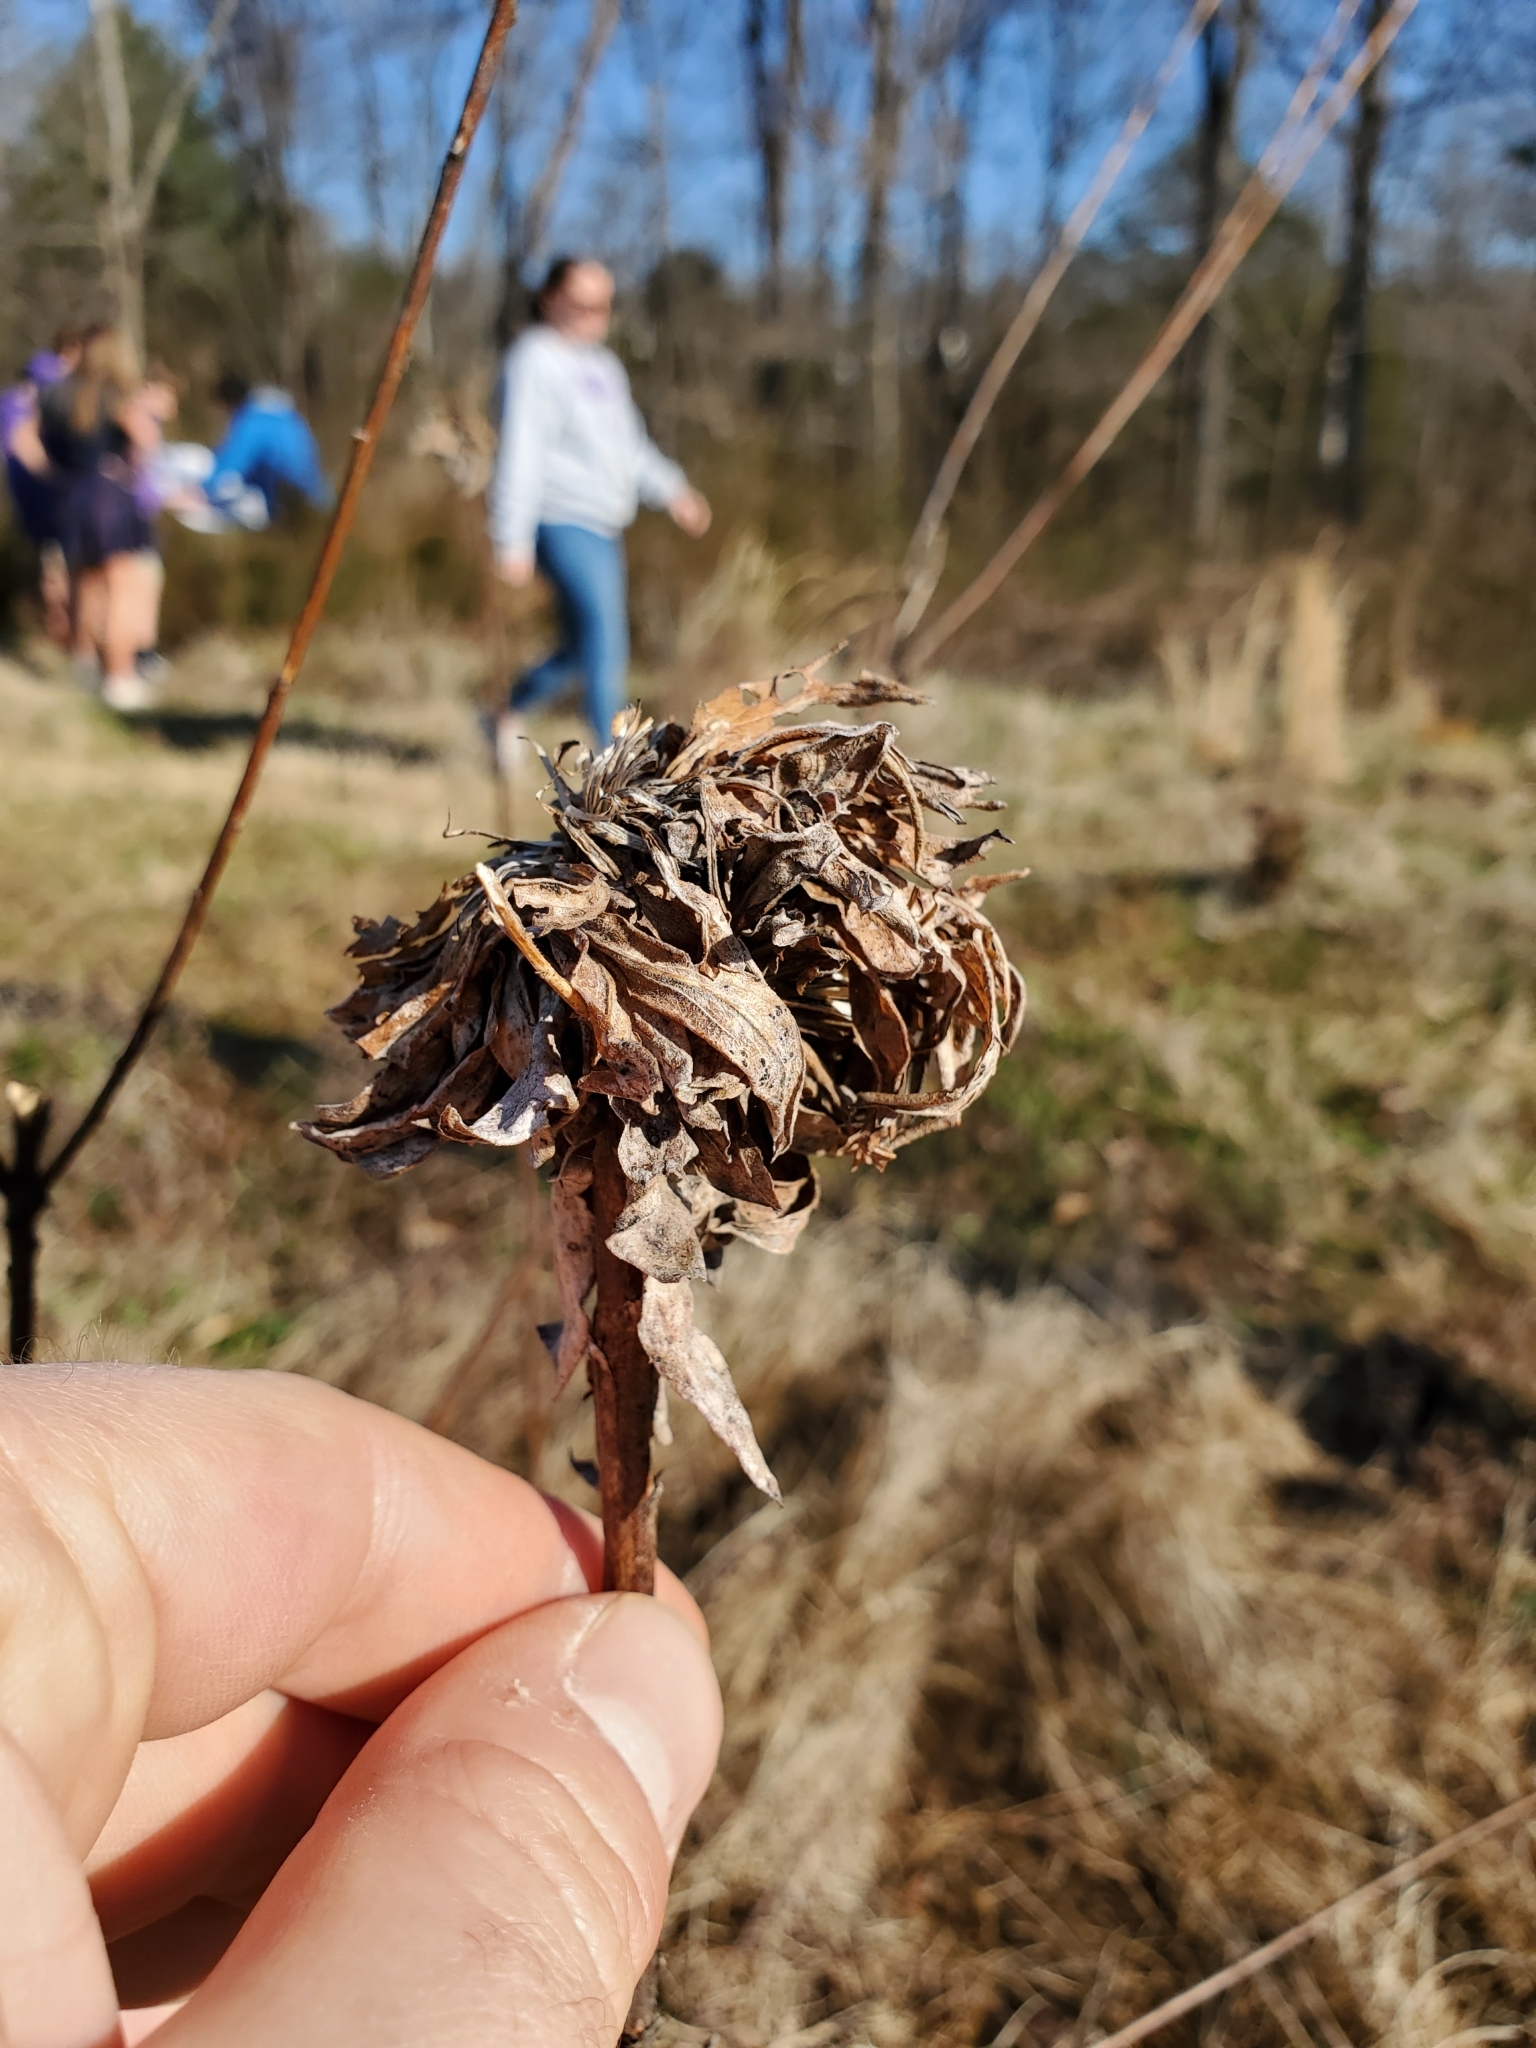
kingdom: Animalia
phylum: Arthropoda
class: Insecta
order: Diptera
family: Cecidomyiidae
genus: Rhopalomyia
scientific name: Rhopalomyia solidaginis
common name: Goldenrod bunch gall midge
